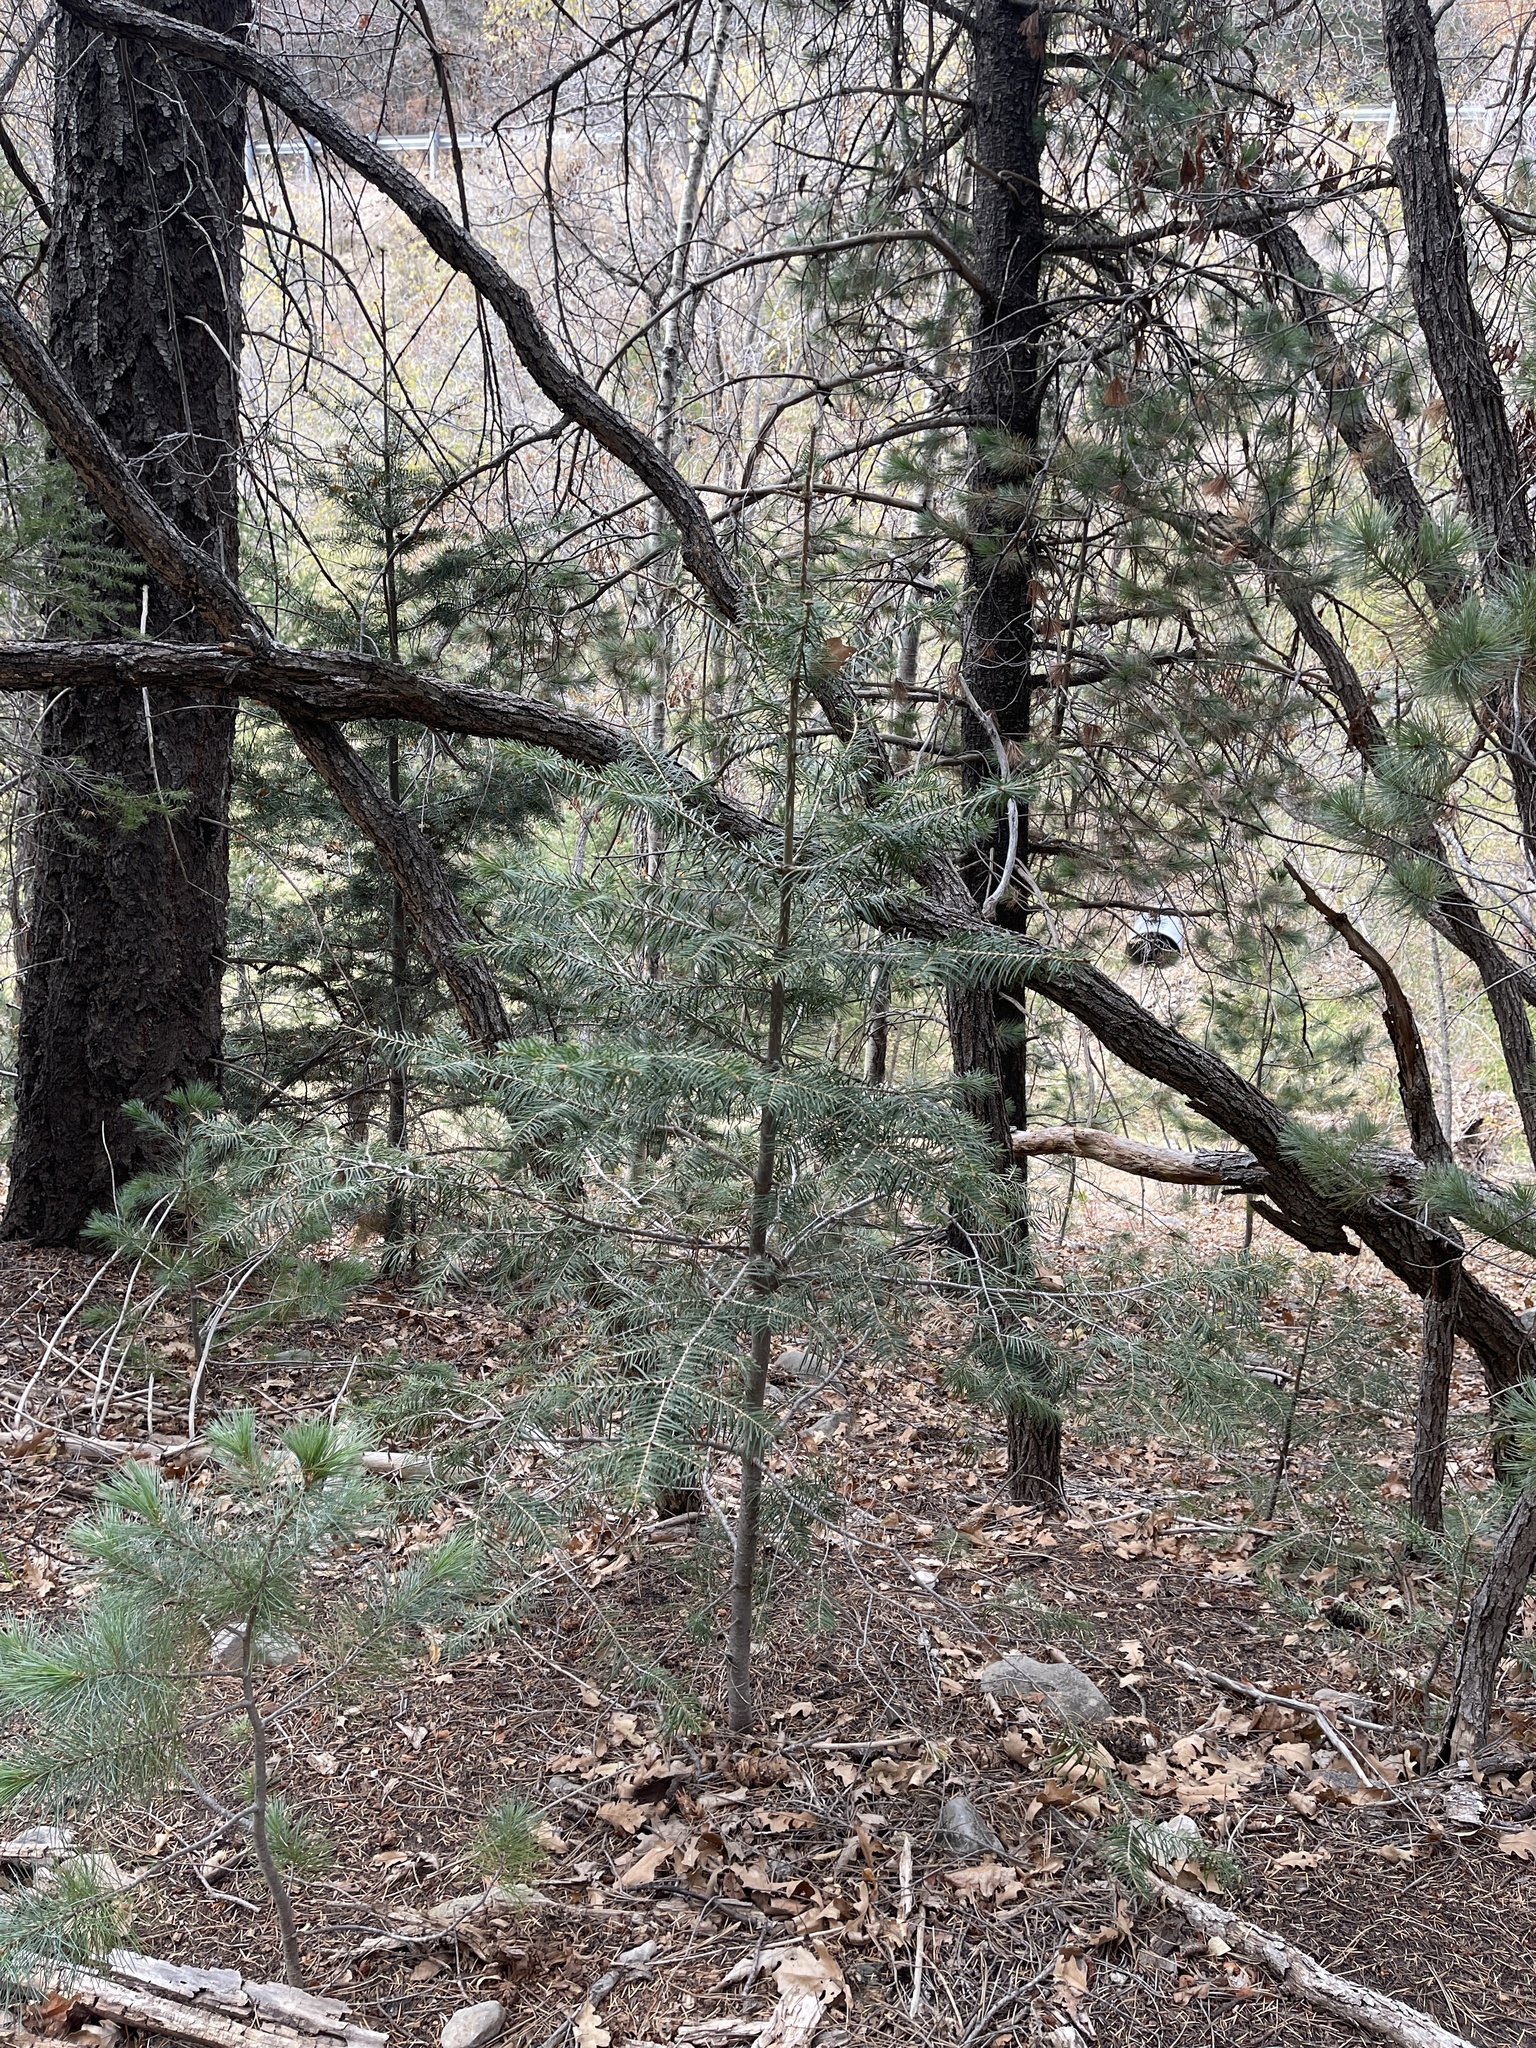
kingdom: Plantae
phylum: Tracheophyta
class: Pinopsida
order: Pinales
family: Pinaceae
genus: Abies
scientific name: Abies concolor
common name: Colorado fir
